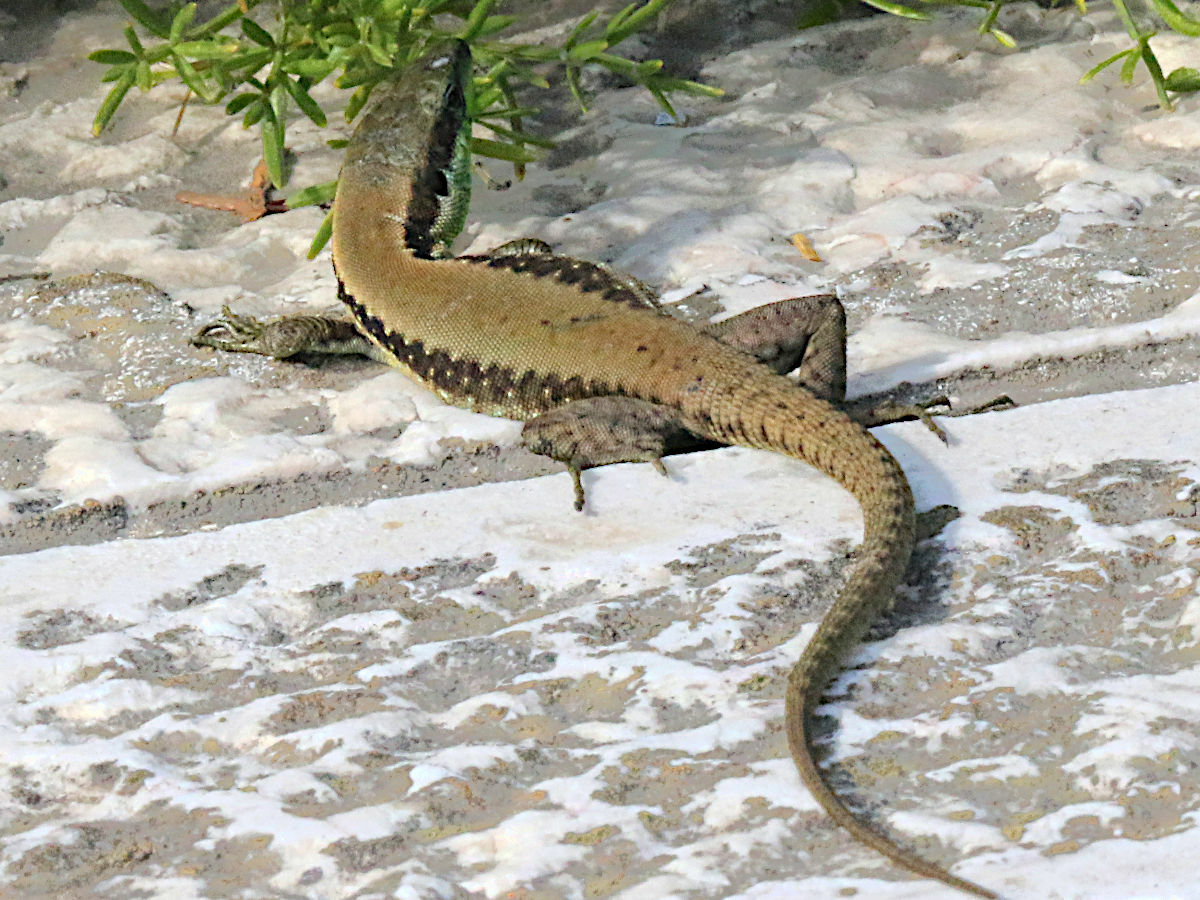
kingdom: Animalia
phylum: Chordata
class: Squamata
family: Lacertidae
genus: Phoenicolacerta
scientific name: Phoenicolacerta laevis
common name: Lebanon lizard
